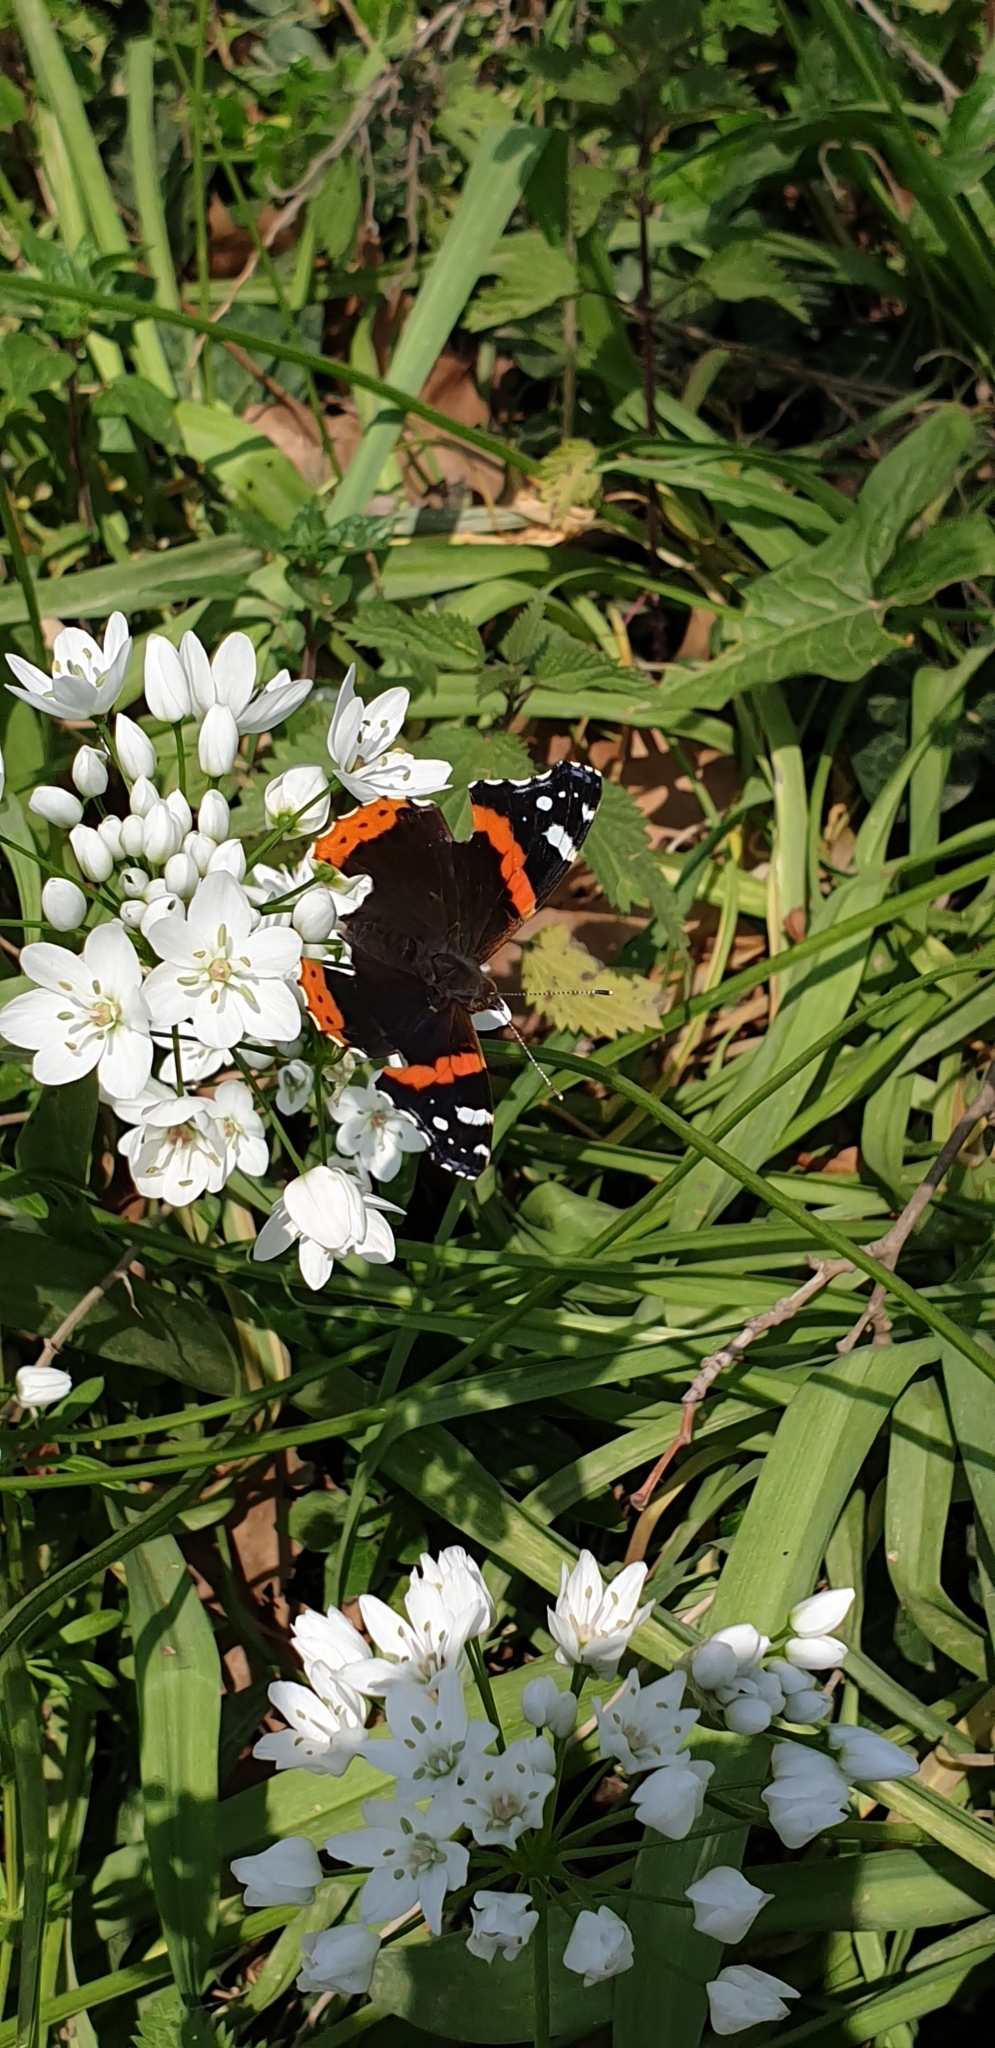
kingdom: Animalia
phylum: Arthropoda
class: Insecta
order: Lepidoptera
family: Nymphalidae
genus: Vanessa
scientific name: Vanessa atalanta
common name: Red admiral
